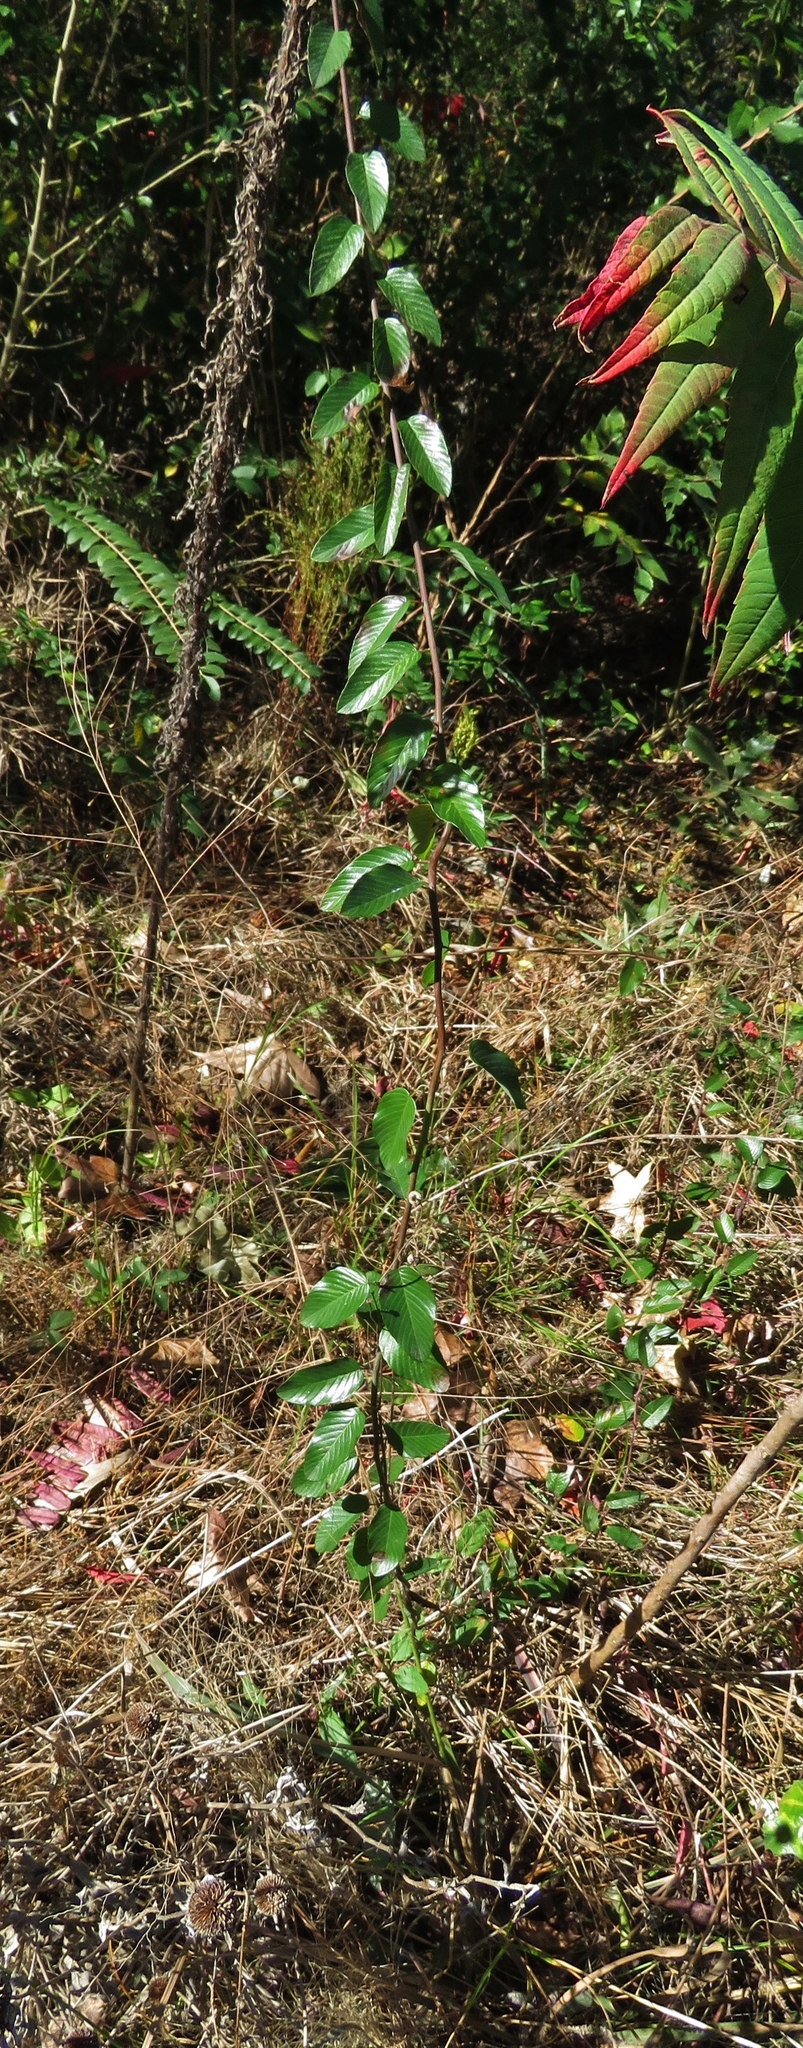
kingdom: Plantae
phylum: Tracheophyta
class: Magnoliopsida
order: Rosales
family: Rhamnaceae
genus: Berchemia
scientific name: Berchemia scandens
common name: Supplejack
